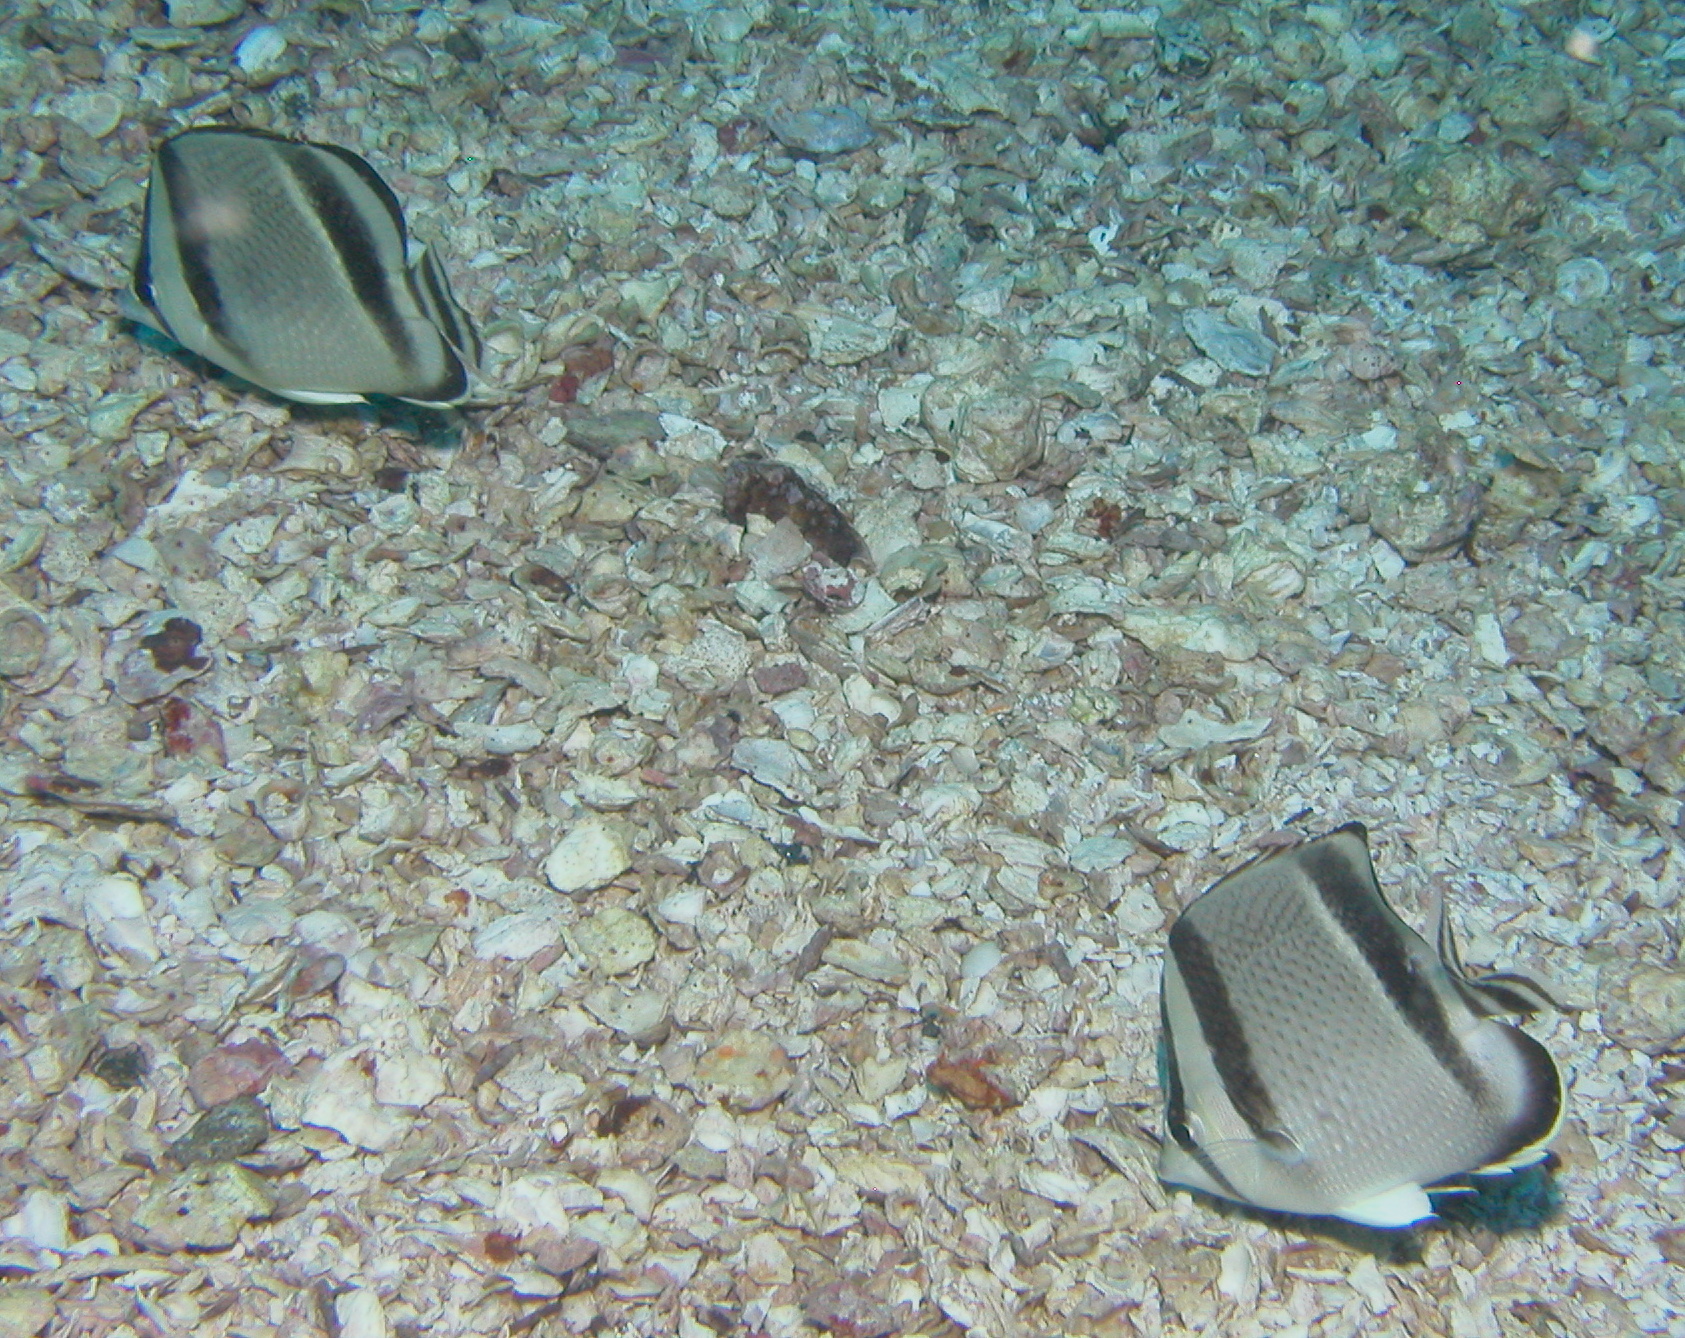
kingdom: Animalia
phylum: Chordata
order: Perciformes
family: Chaetodontidae
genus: Chaetodon
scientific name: Chaetodon humeralis
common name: Threebanded butterflyfish
